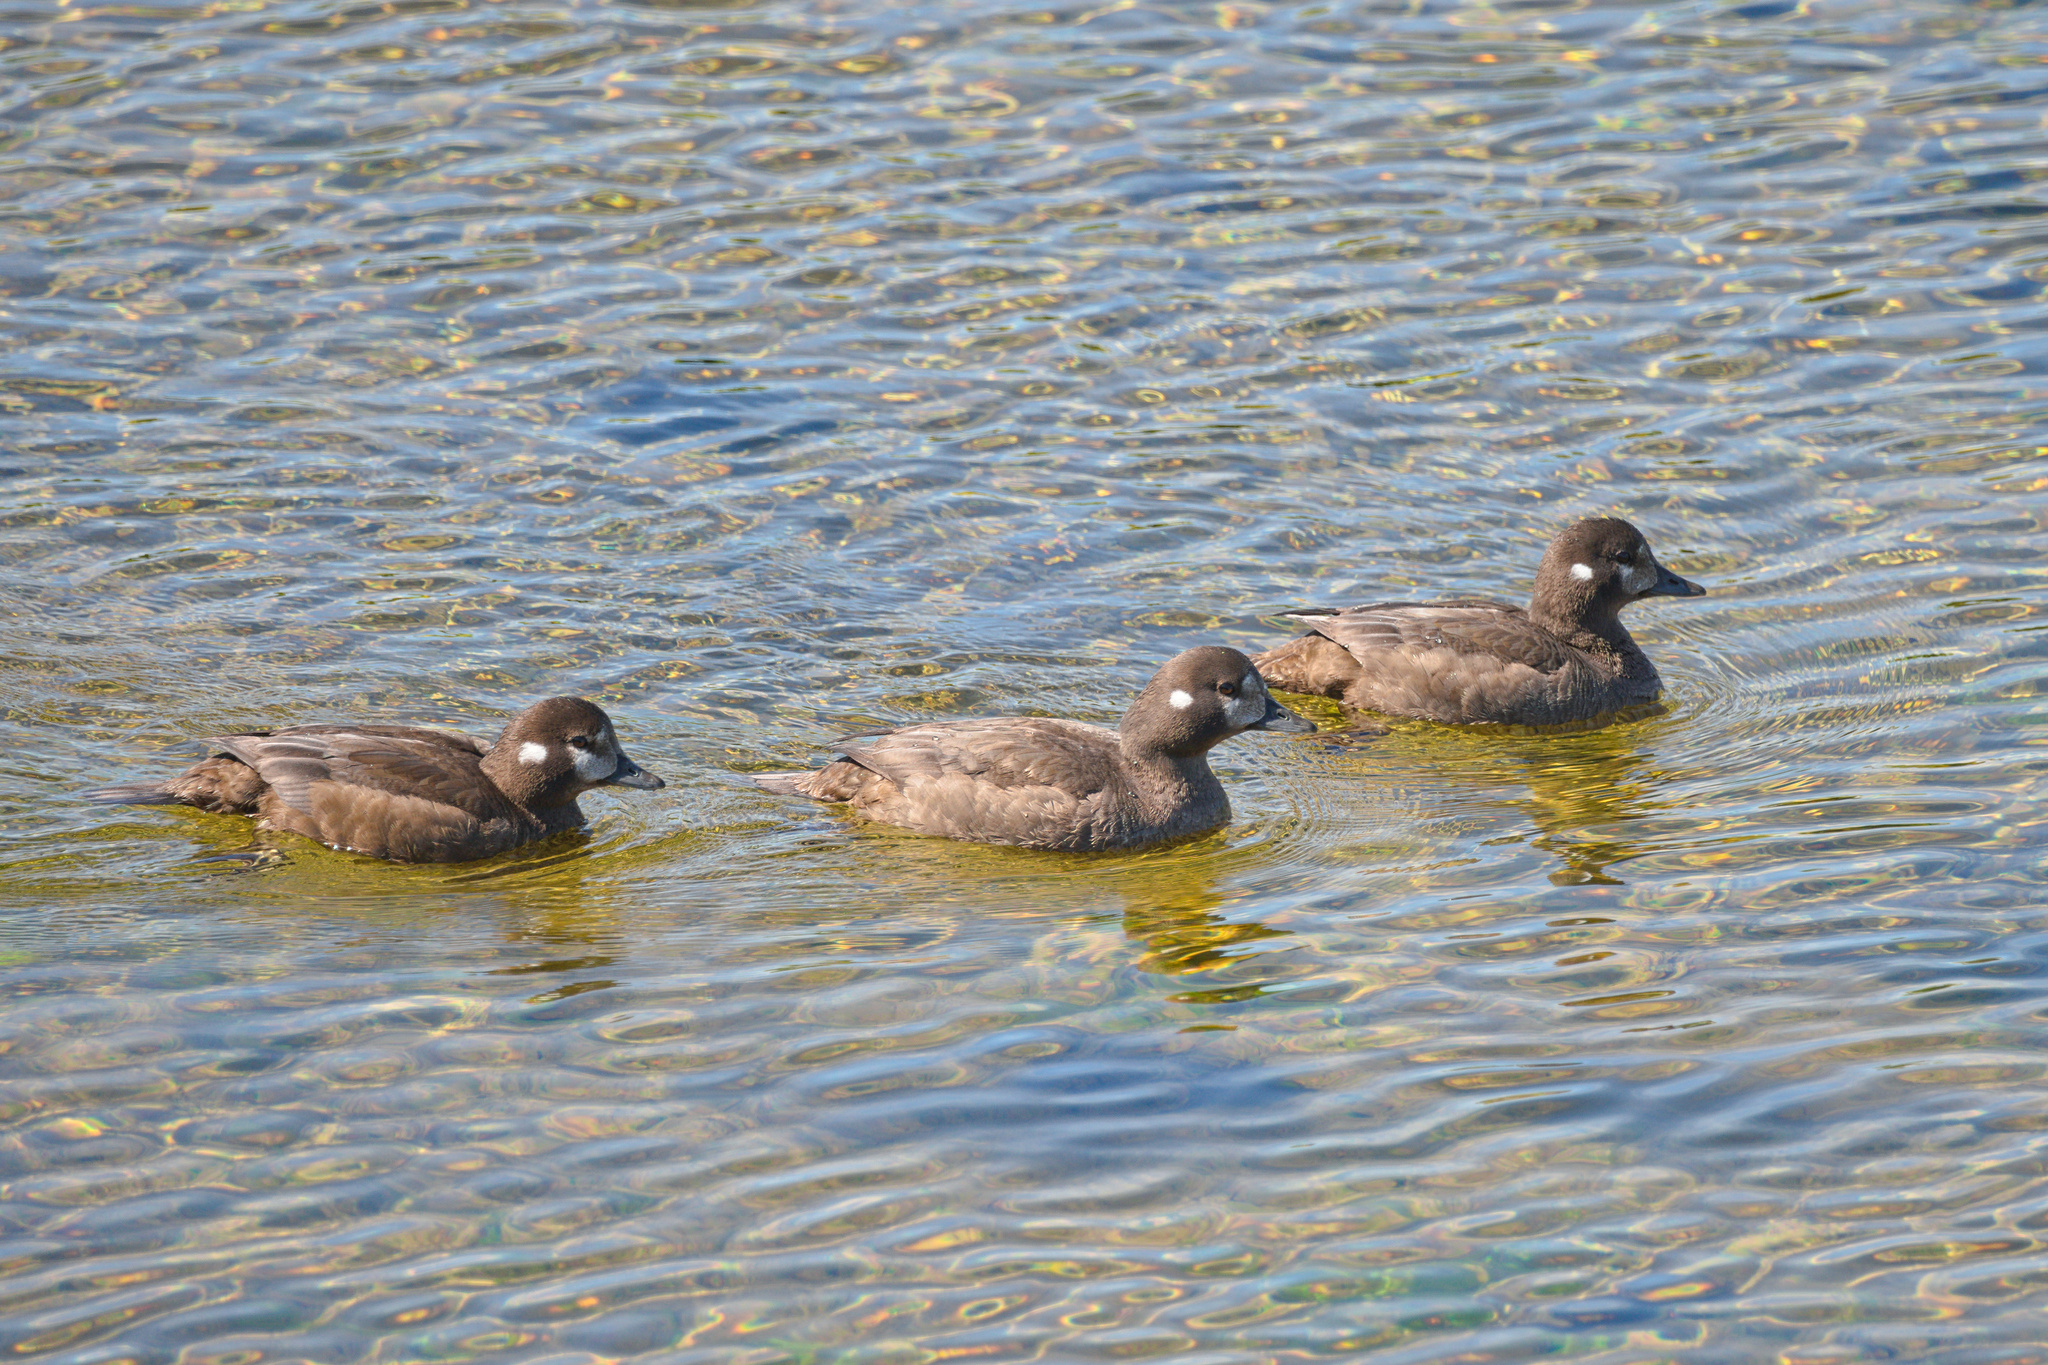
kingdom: Animalia
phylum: Chordata
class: Aves
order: Anseriformes
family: Anatidae
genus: Histrionicus
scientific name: Histrionicus histrionicus
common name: Harlequin duck
